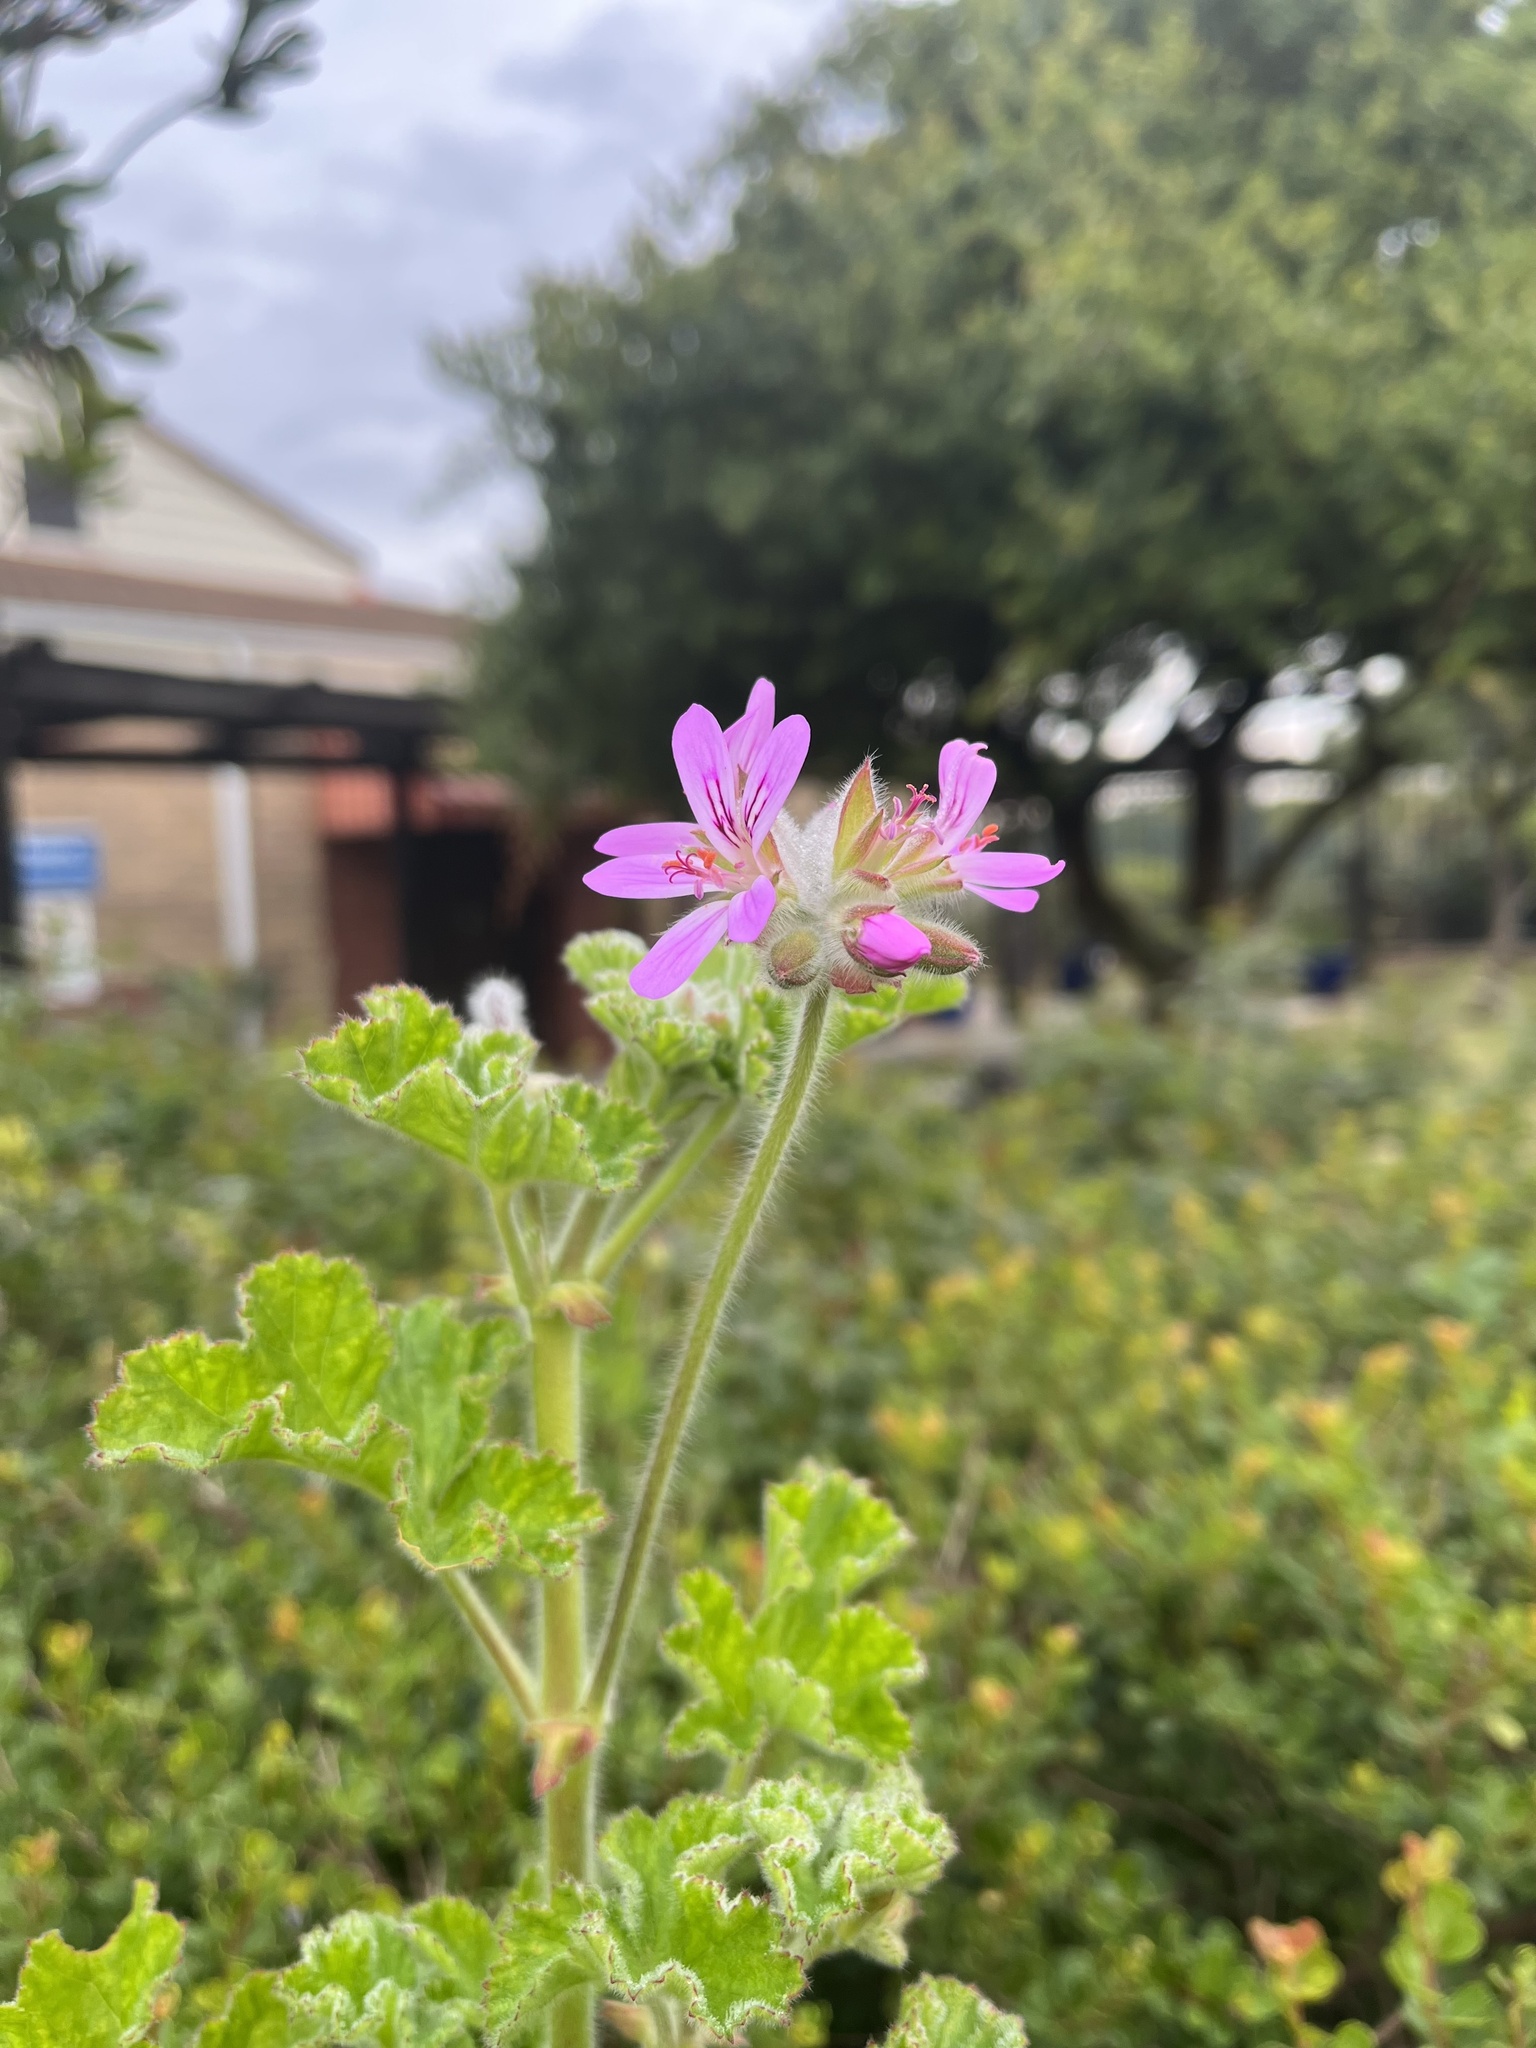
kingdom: Plantae
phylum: Tracheophyta
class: Magnoliopsida
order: Geraniales
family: Geraniaceae
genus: Pelargonium
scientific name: Pelargonium capitatum
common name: Rose scented geranium
